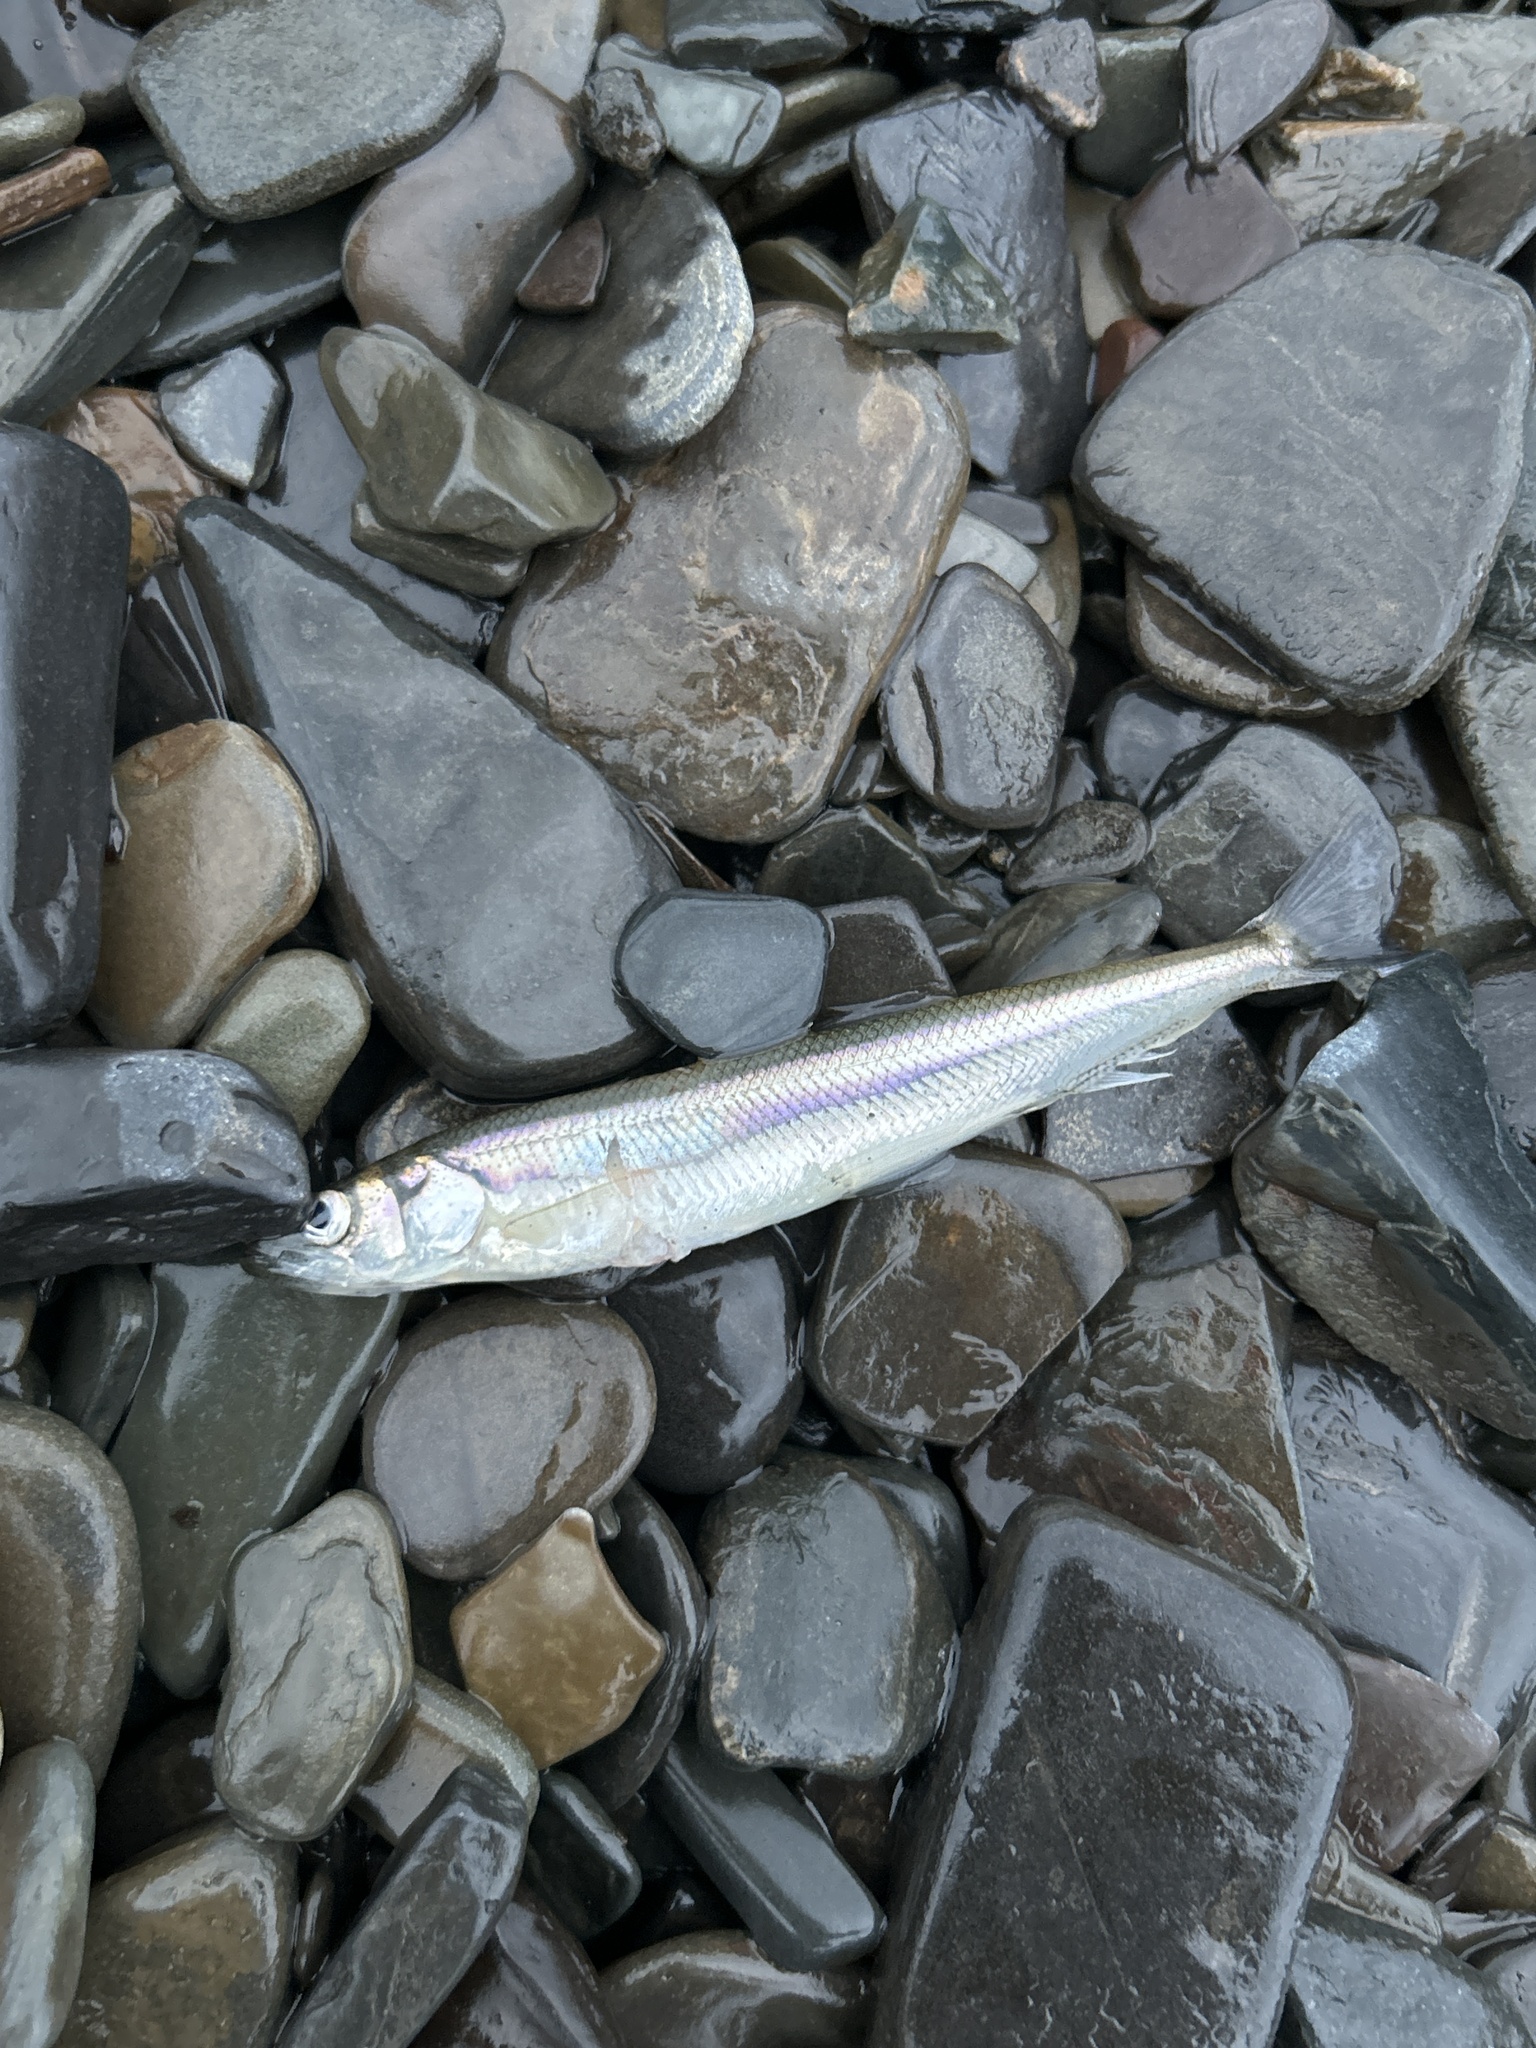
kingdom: Animalia
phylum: Chordata
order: Osmeriformes
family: Osmeridae
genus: Osmerus
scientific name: Osmerus mordax
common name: Rainbow smelt
